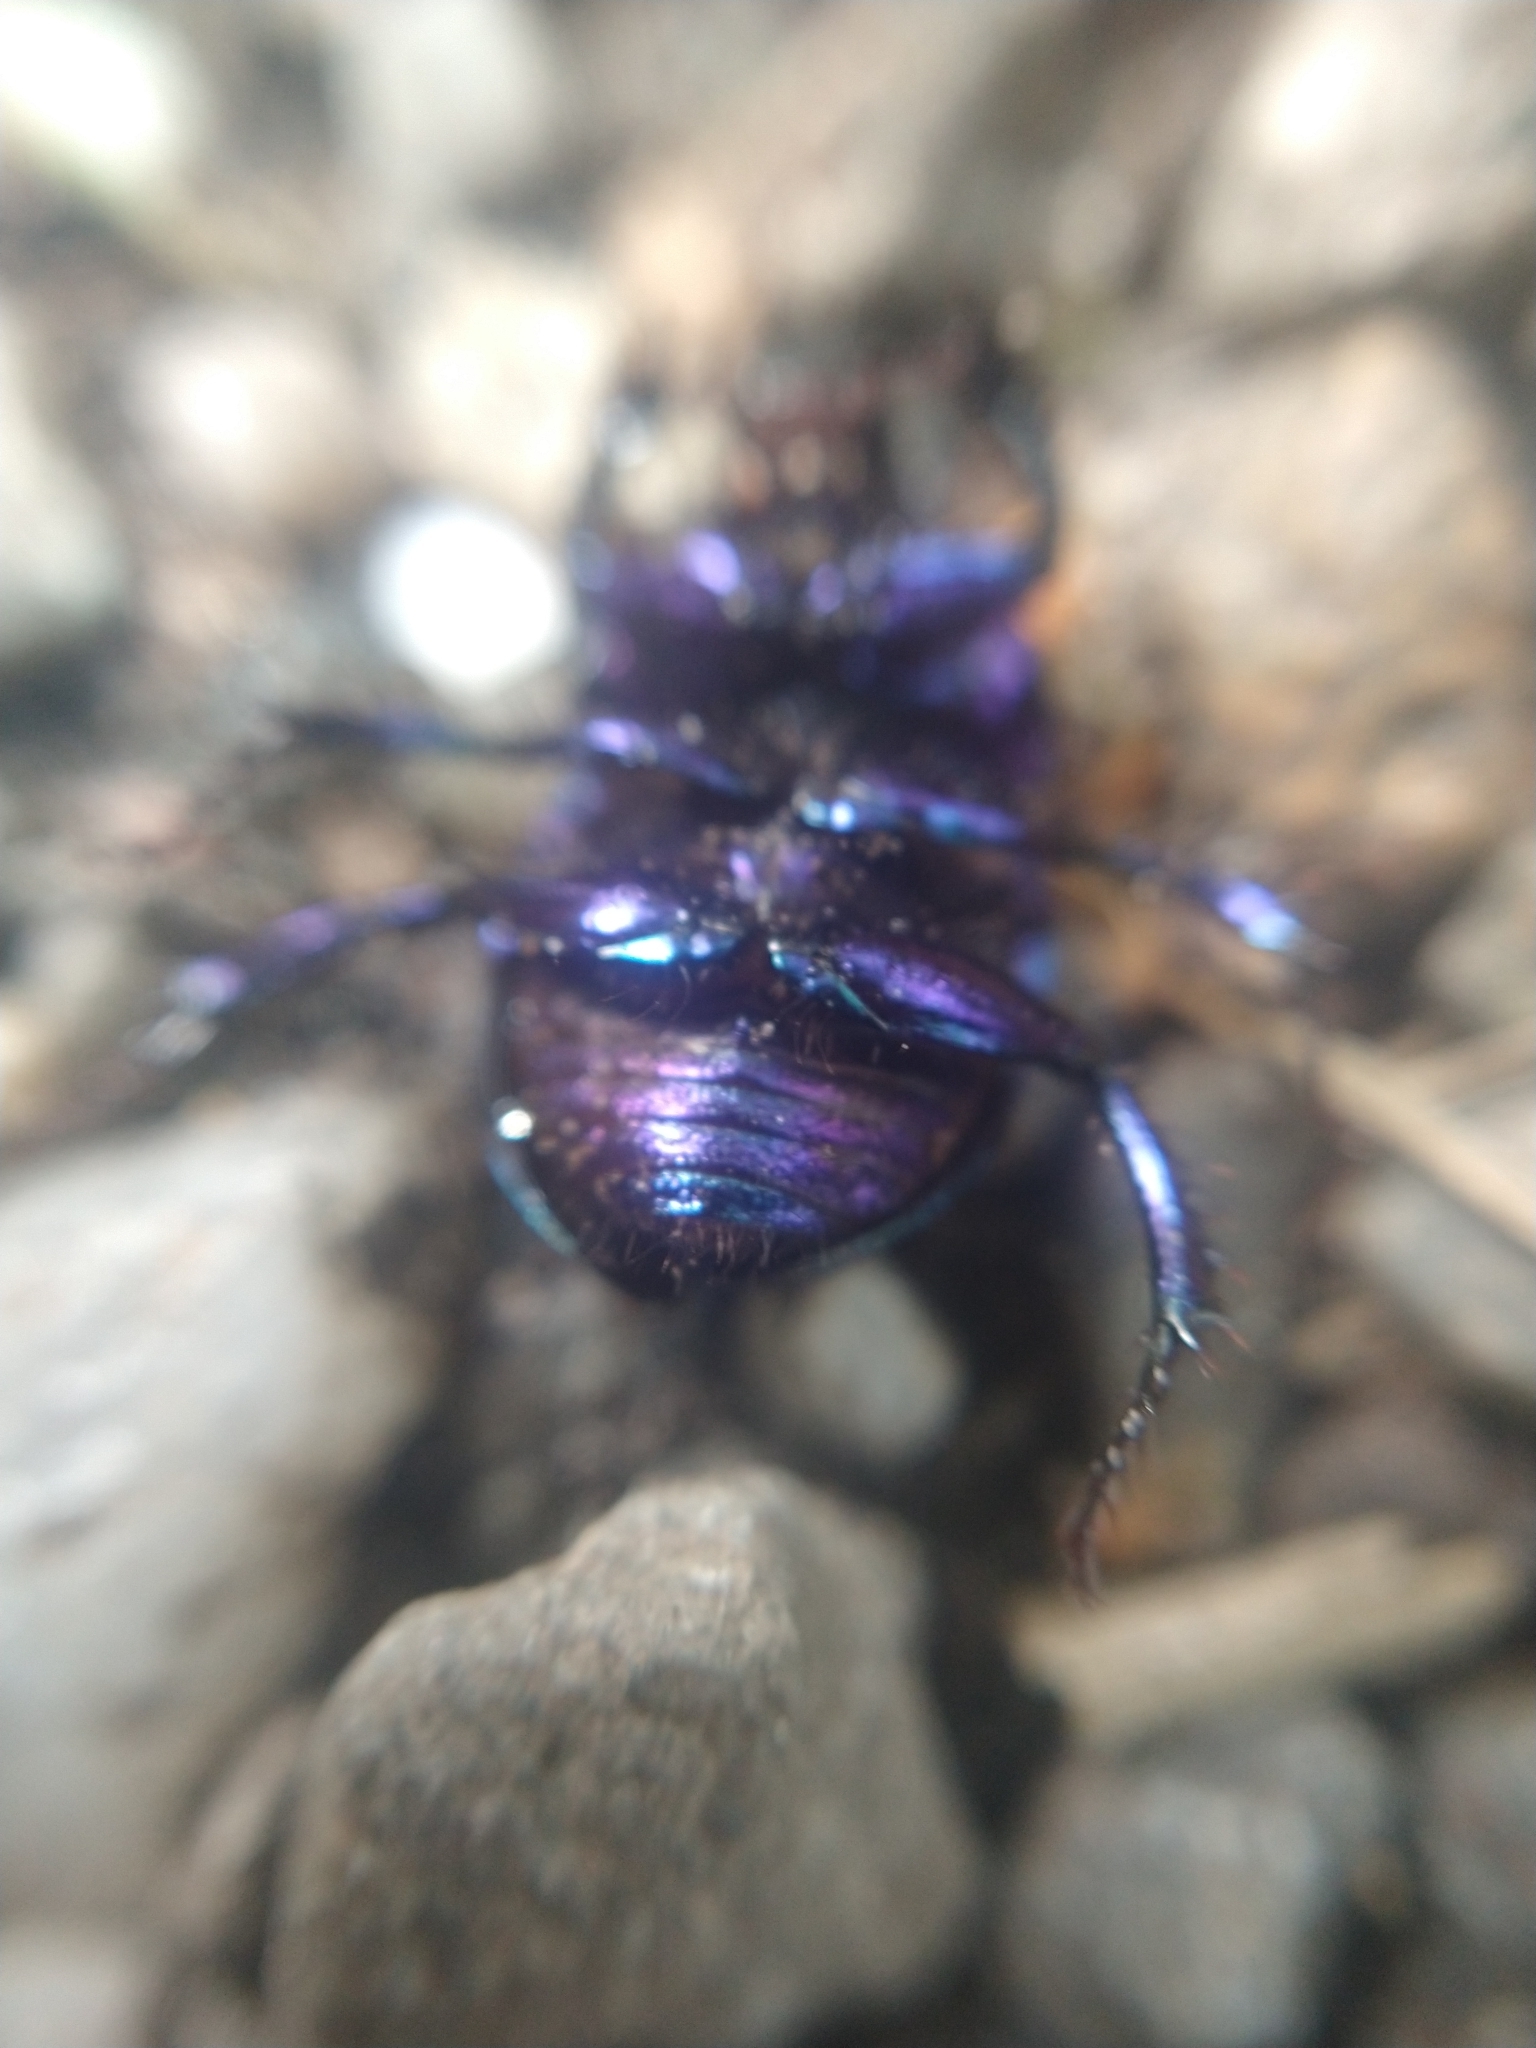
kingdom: Animalia
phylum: Arthropoda
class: Insecta
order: Coleoptera
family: Geotrupidae
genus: Anoplotrupes
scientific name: Anoplotrupes stercorosus
